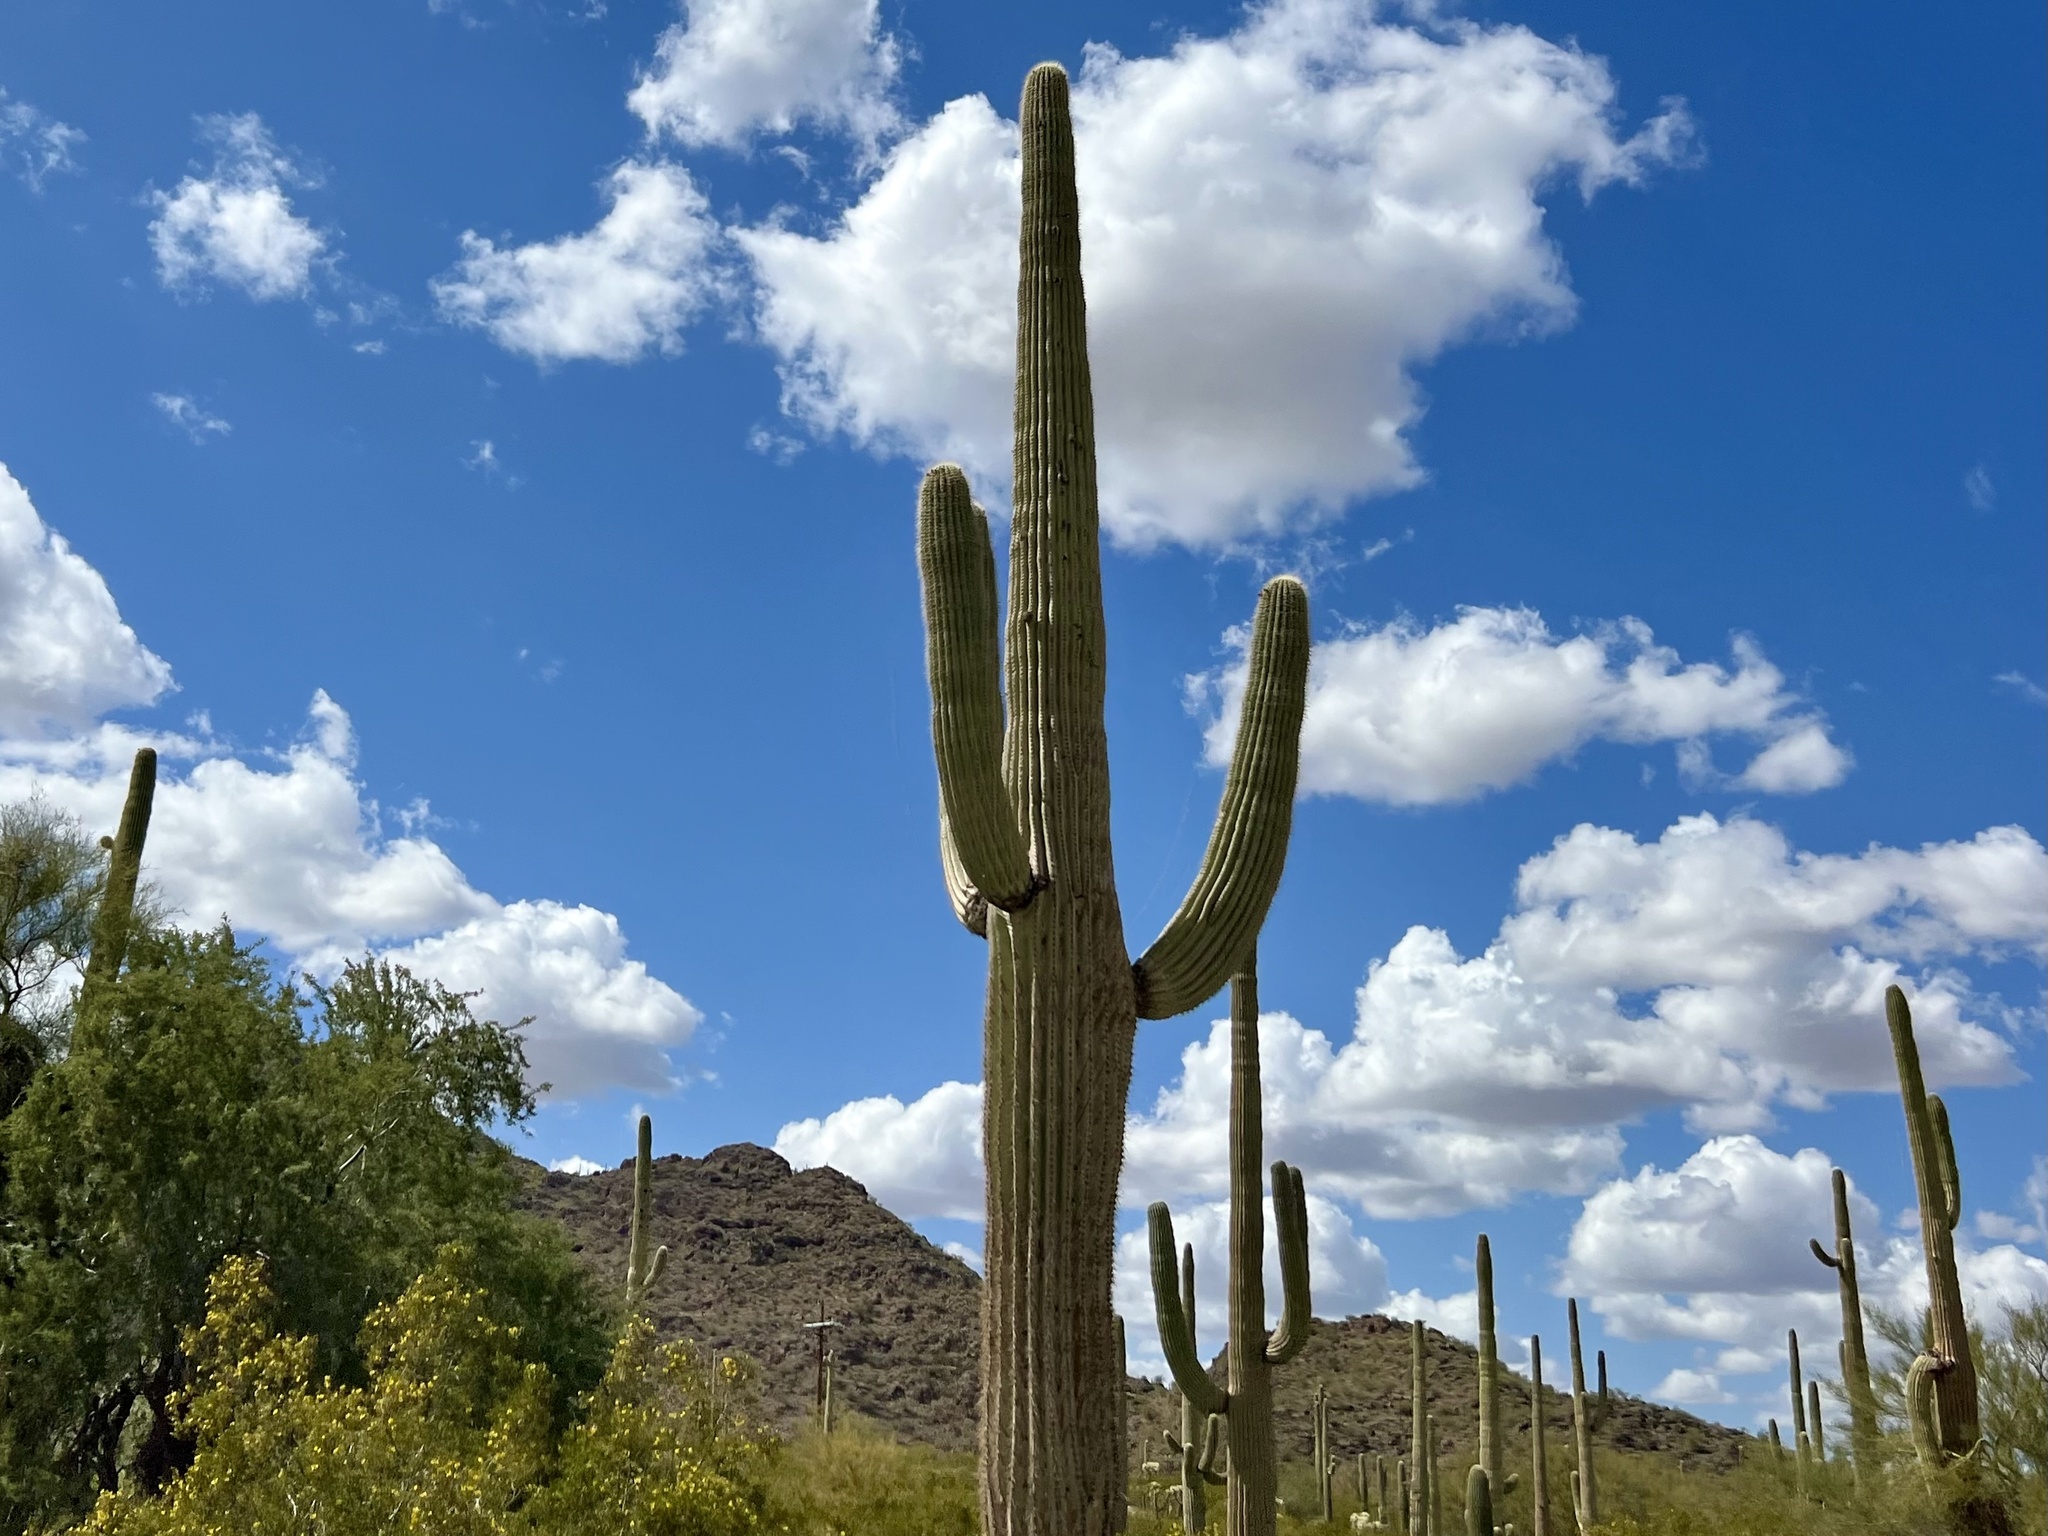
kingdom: Plantae
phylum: Tracheophyta
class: Magnoliopsida
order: Caryophyllales
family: Cactaceae
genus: Carnegiea
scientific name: Carnegiea gigantea
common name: Saguaro
